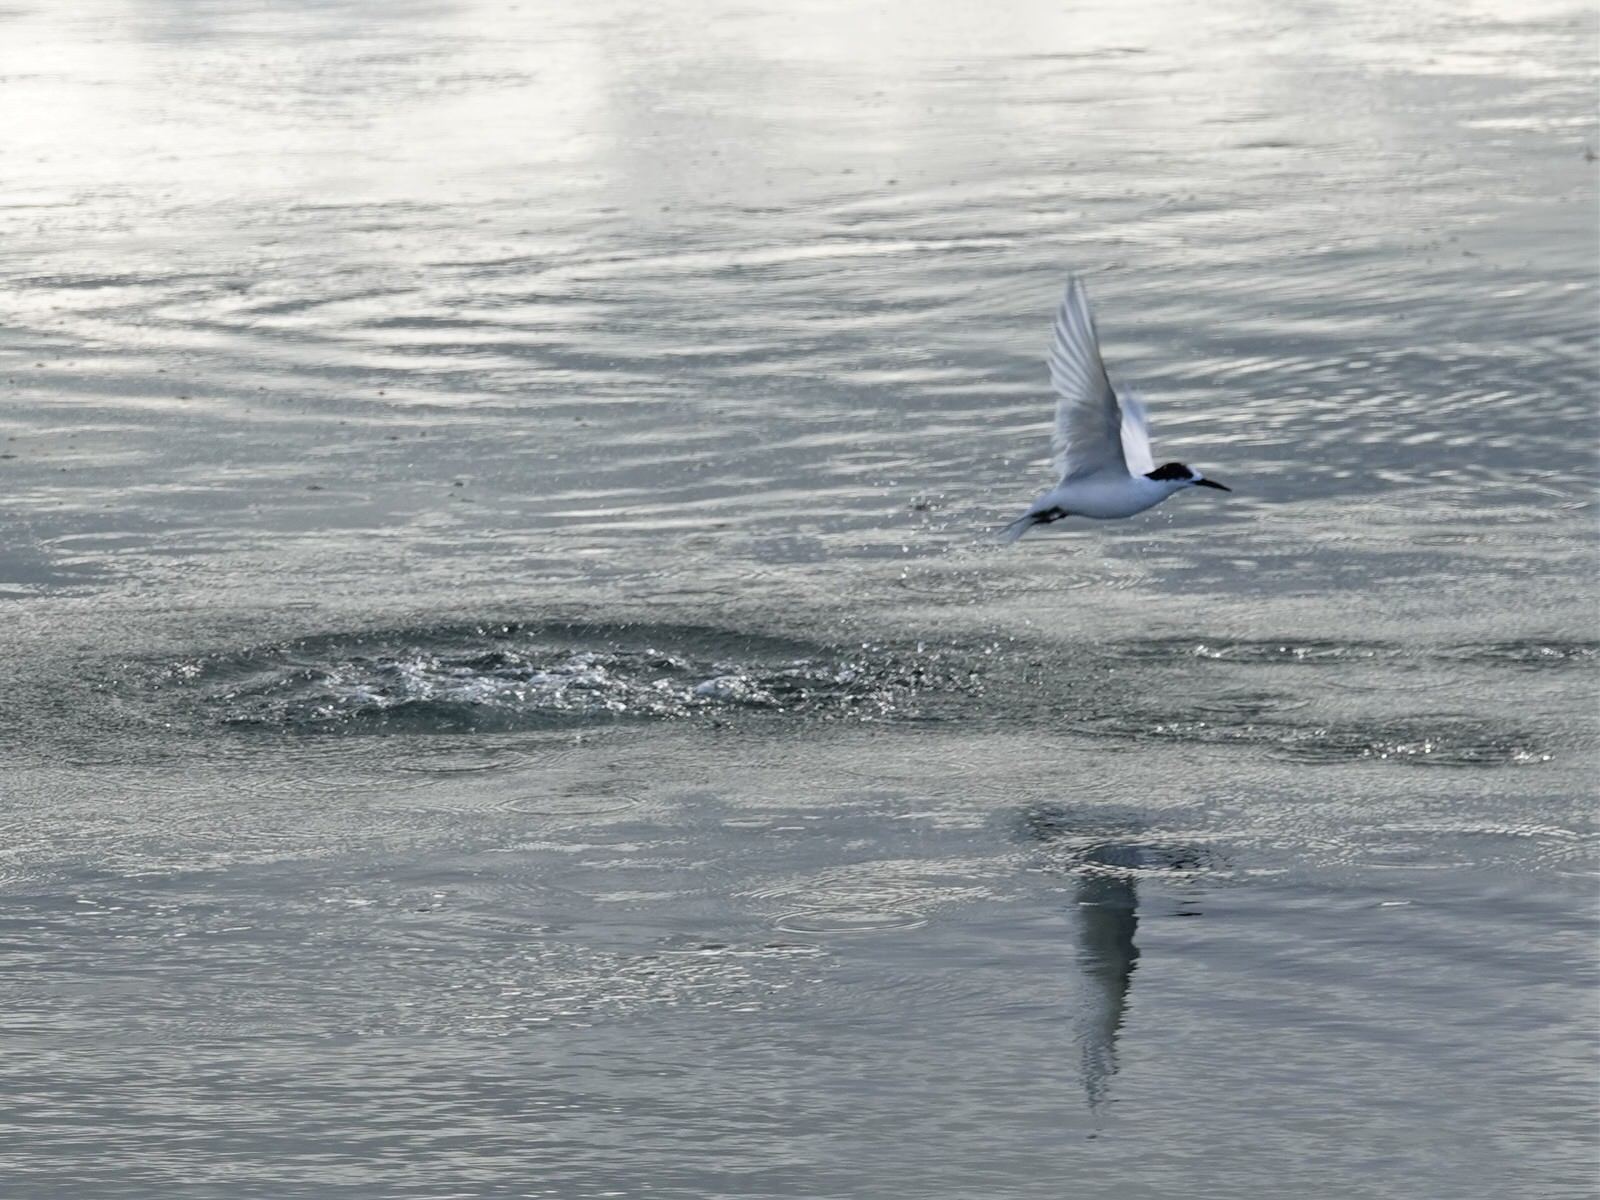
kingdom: Animalia
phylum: Chordata
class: Aves
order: Charadriiformes
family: Laridae
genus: Sterna
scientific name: Sterna striata
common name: White-fronted tern
